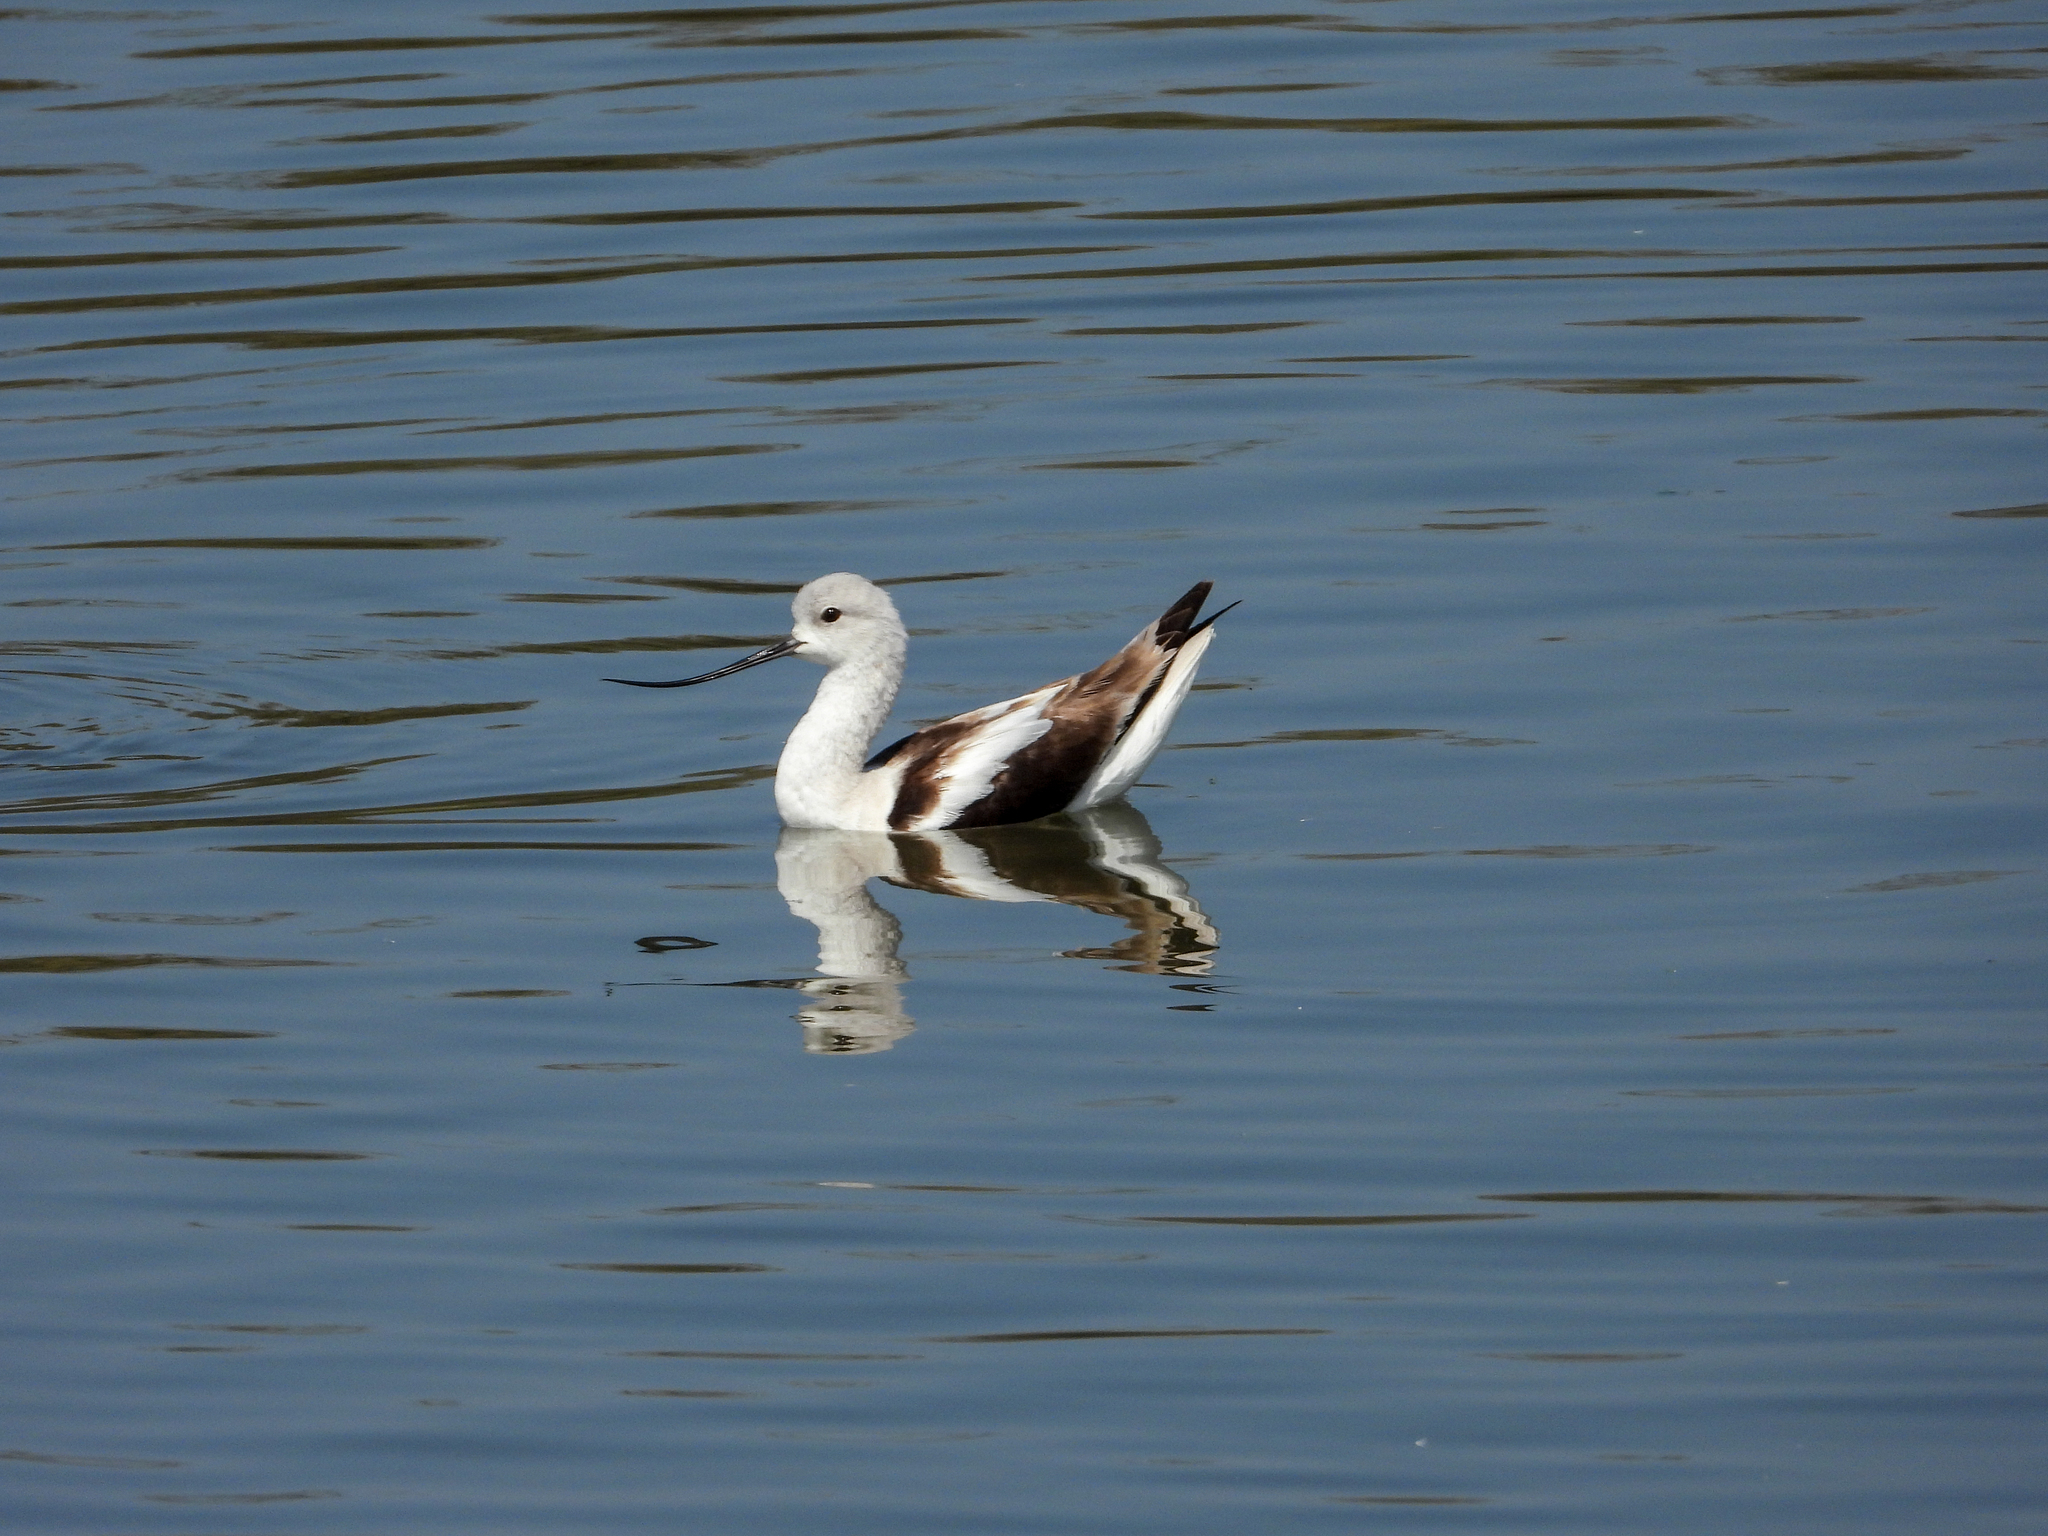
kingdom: Animalia
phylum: Chordata
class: Aves
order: Charadriiformes
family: Recurvirostridae
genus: Recurvirostra
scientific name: Recurvirostra americana
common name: American avocet
